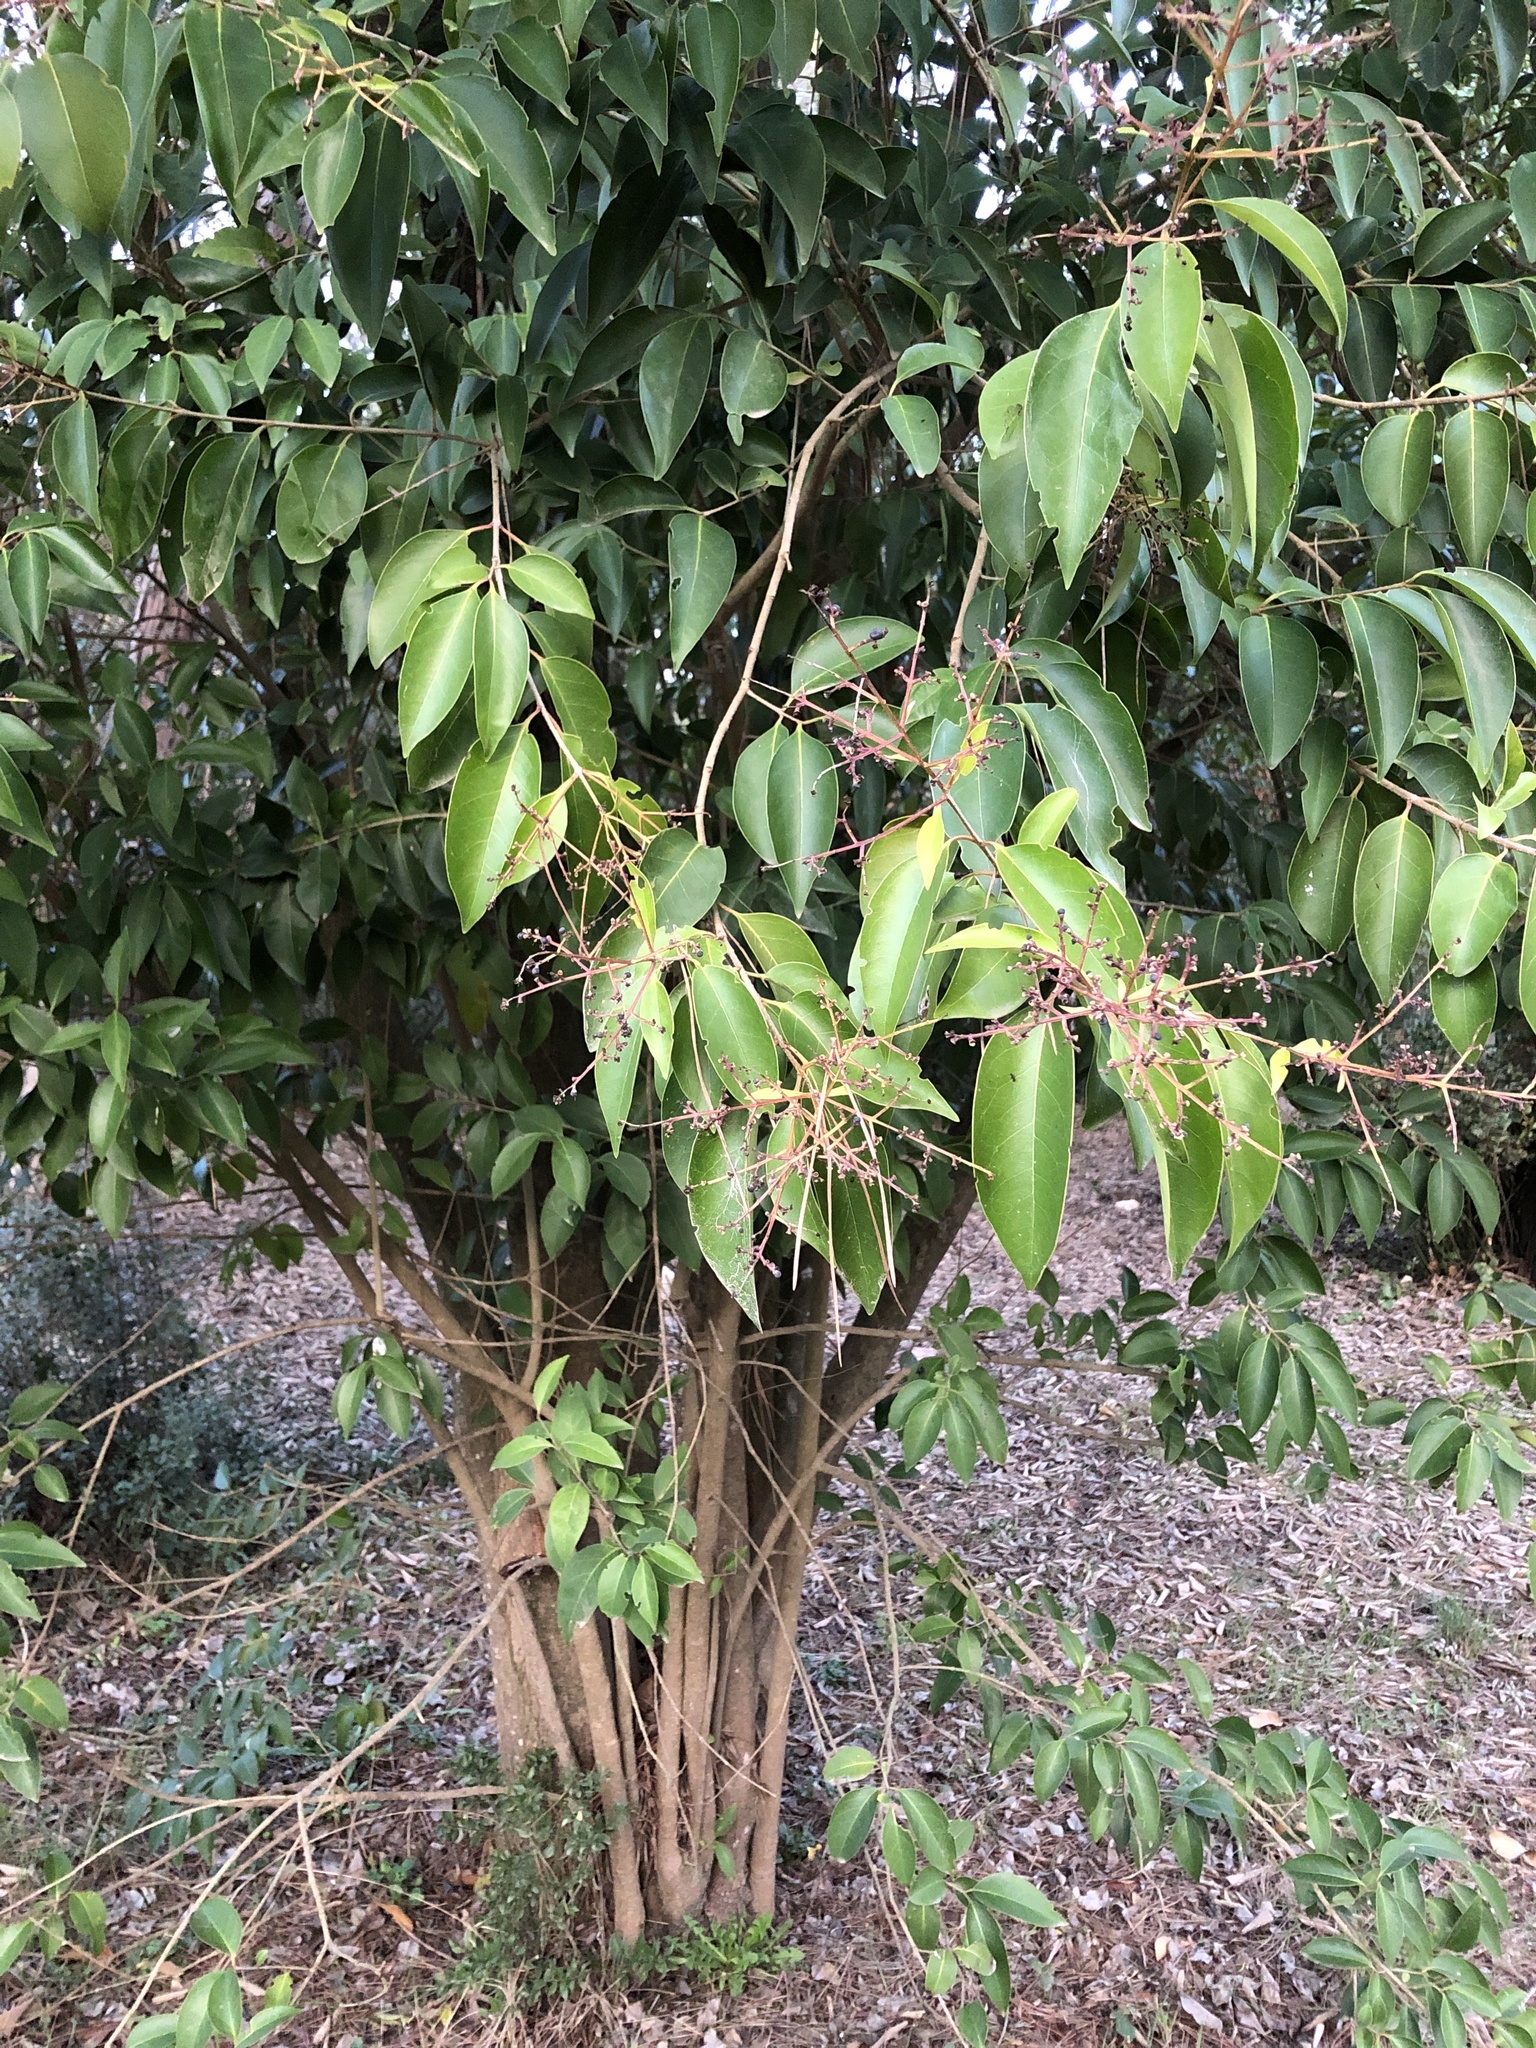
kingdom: Plantae
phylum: Tracheophyta
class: Magnoliopsida
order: Lamiales
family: Oleaceae
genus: Ligustrum
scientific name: Ligustrum lucidum
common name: Glossy privet
